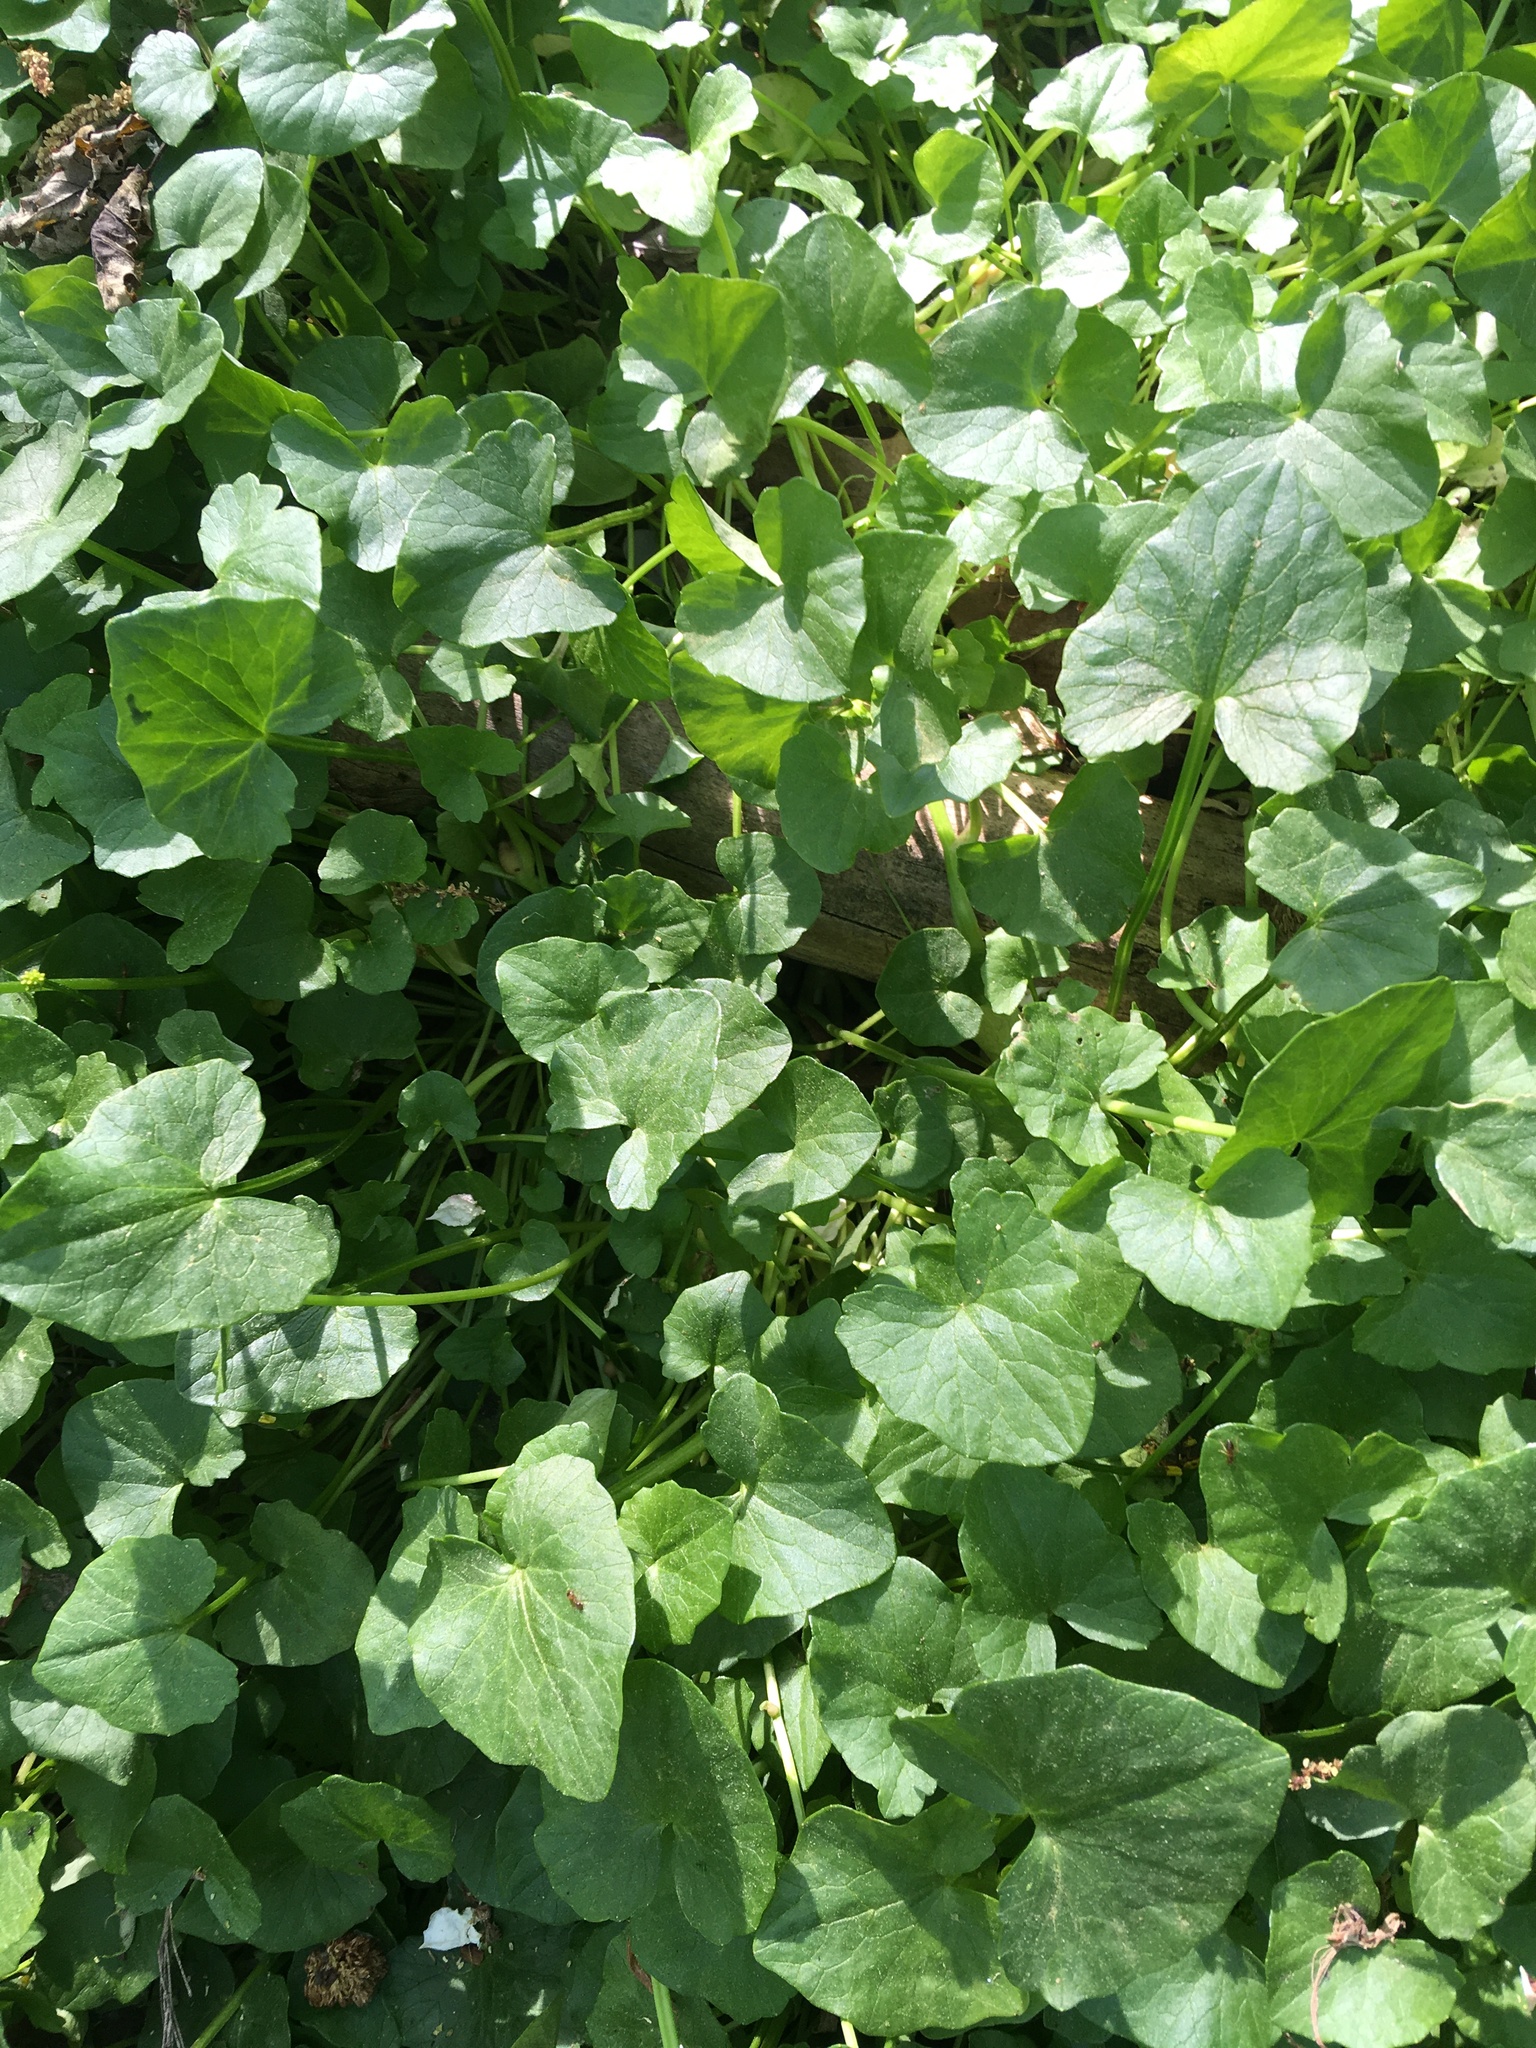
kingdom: Plantae
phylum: Tracheophyta
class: Magnoliopsida
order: Ranunculales
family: Ranunculaceae
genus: Ficaria
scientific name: Ficaria verna
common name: Lesser celandine
